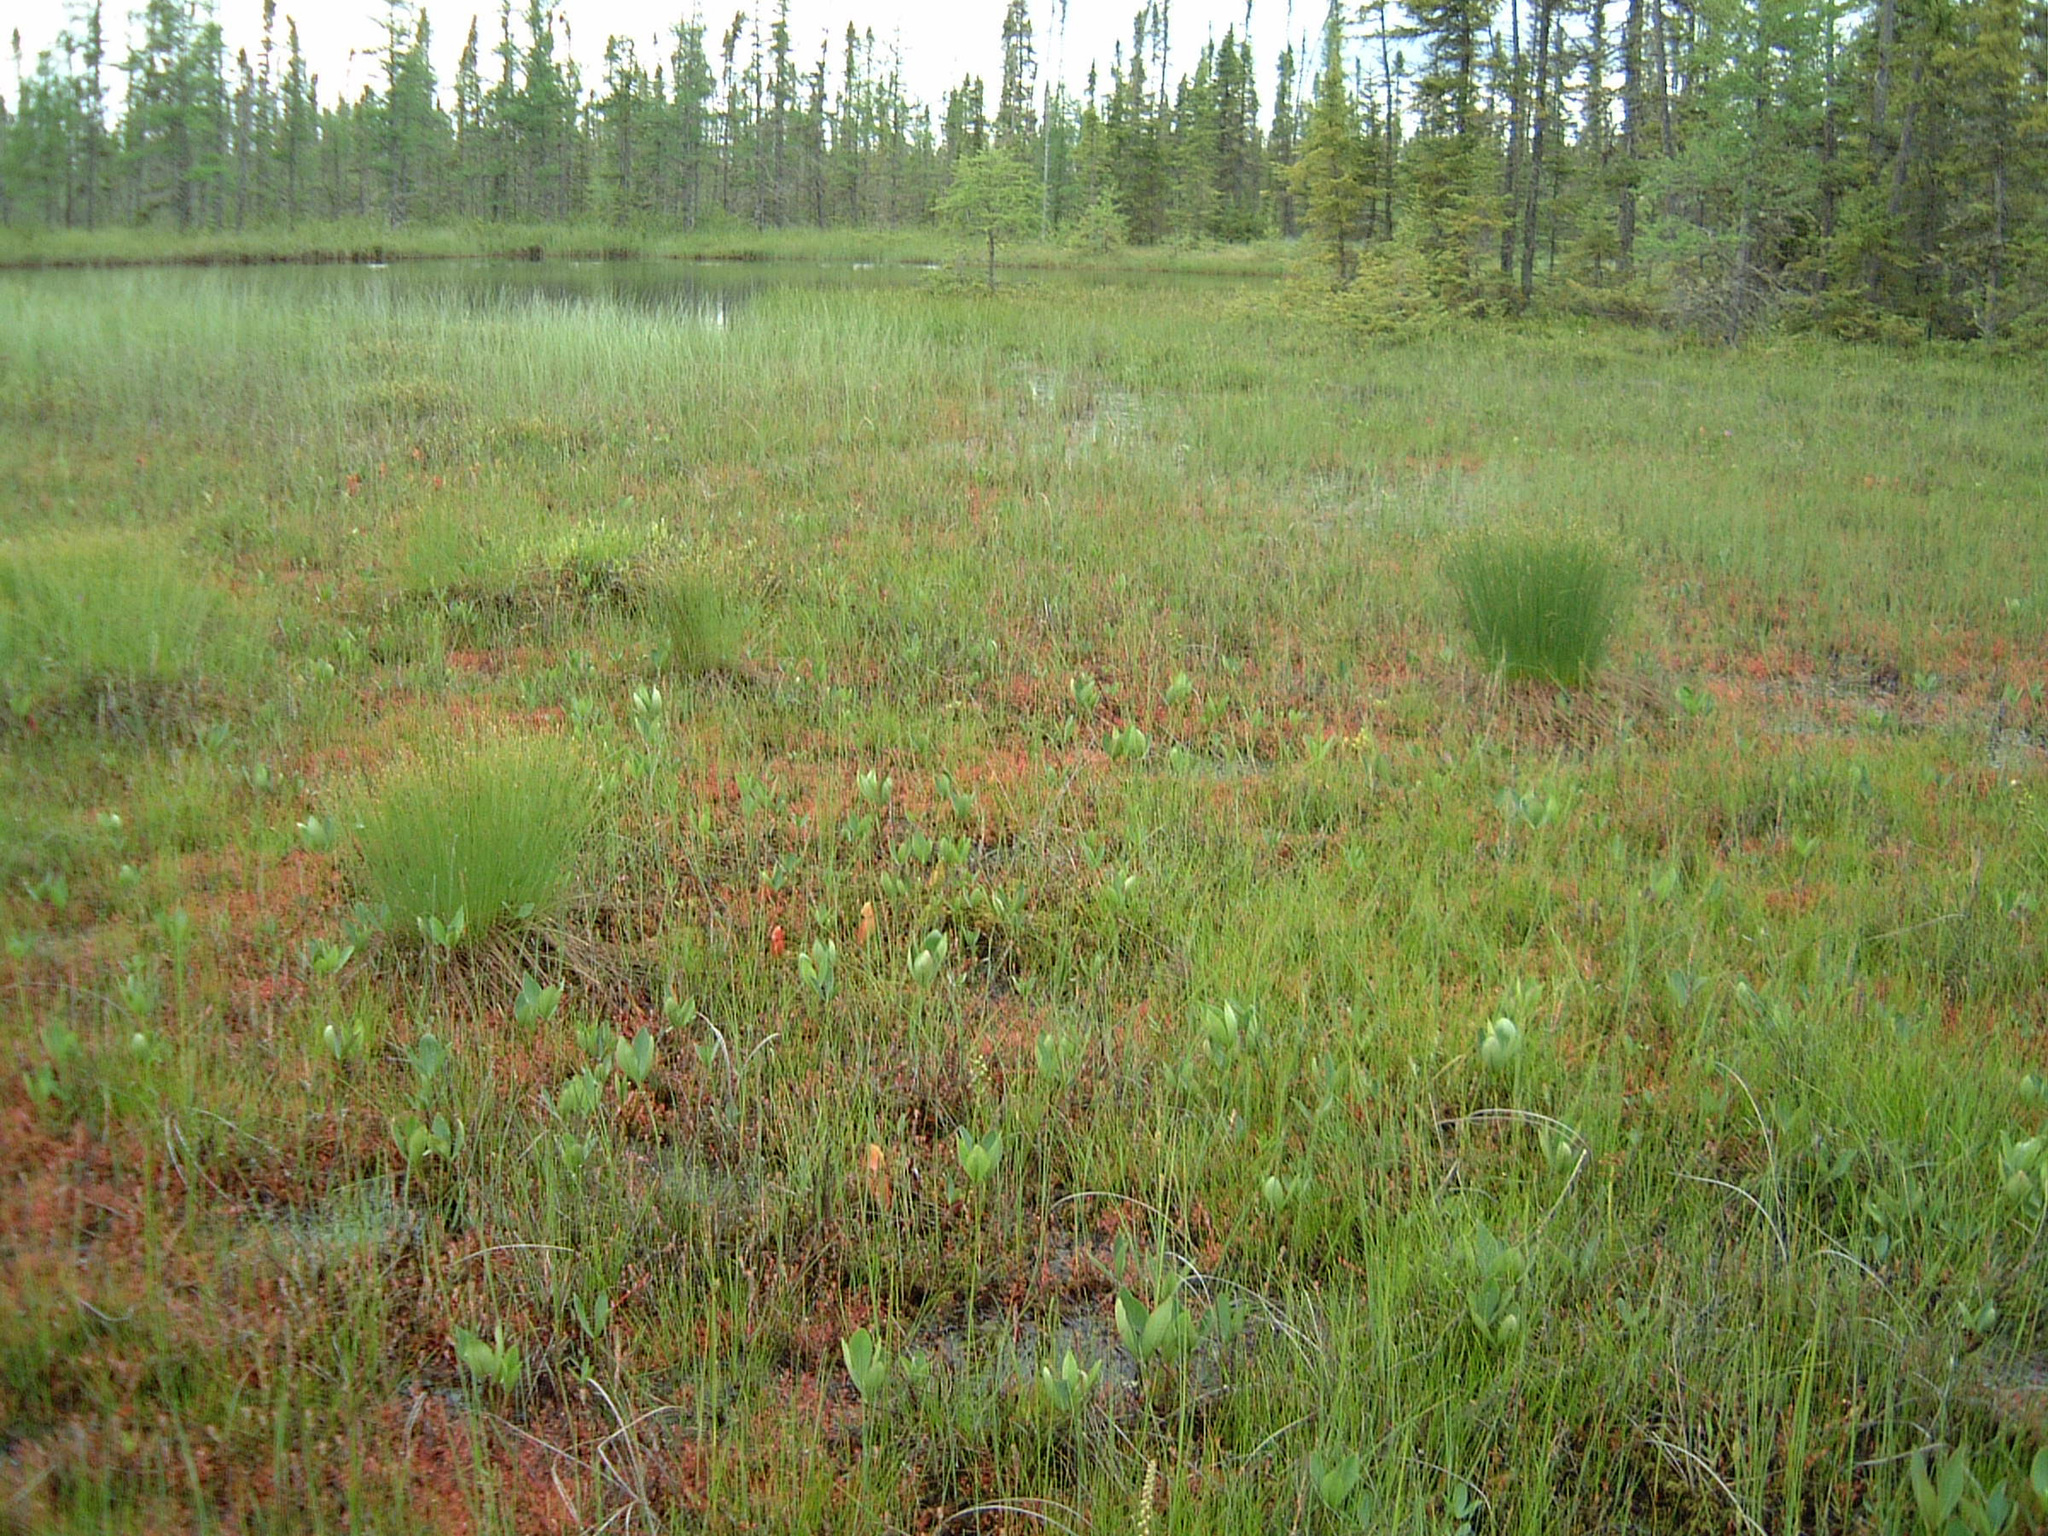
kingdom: Plantae
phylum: Tracheophyta
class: Magnoliopsida
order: Asterales
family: Menyanthaceae
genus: Menyanthes
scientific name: Menyanthes trifoliata
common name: Bogbean
